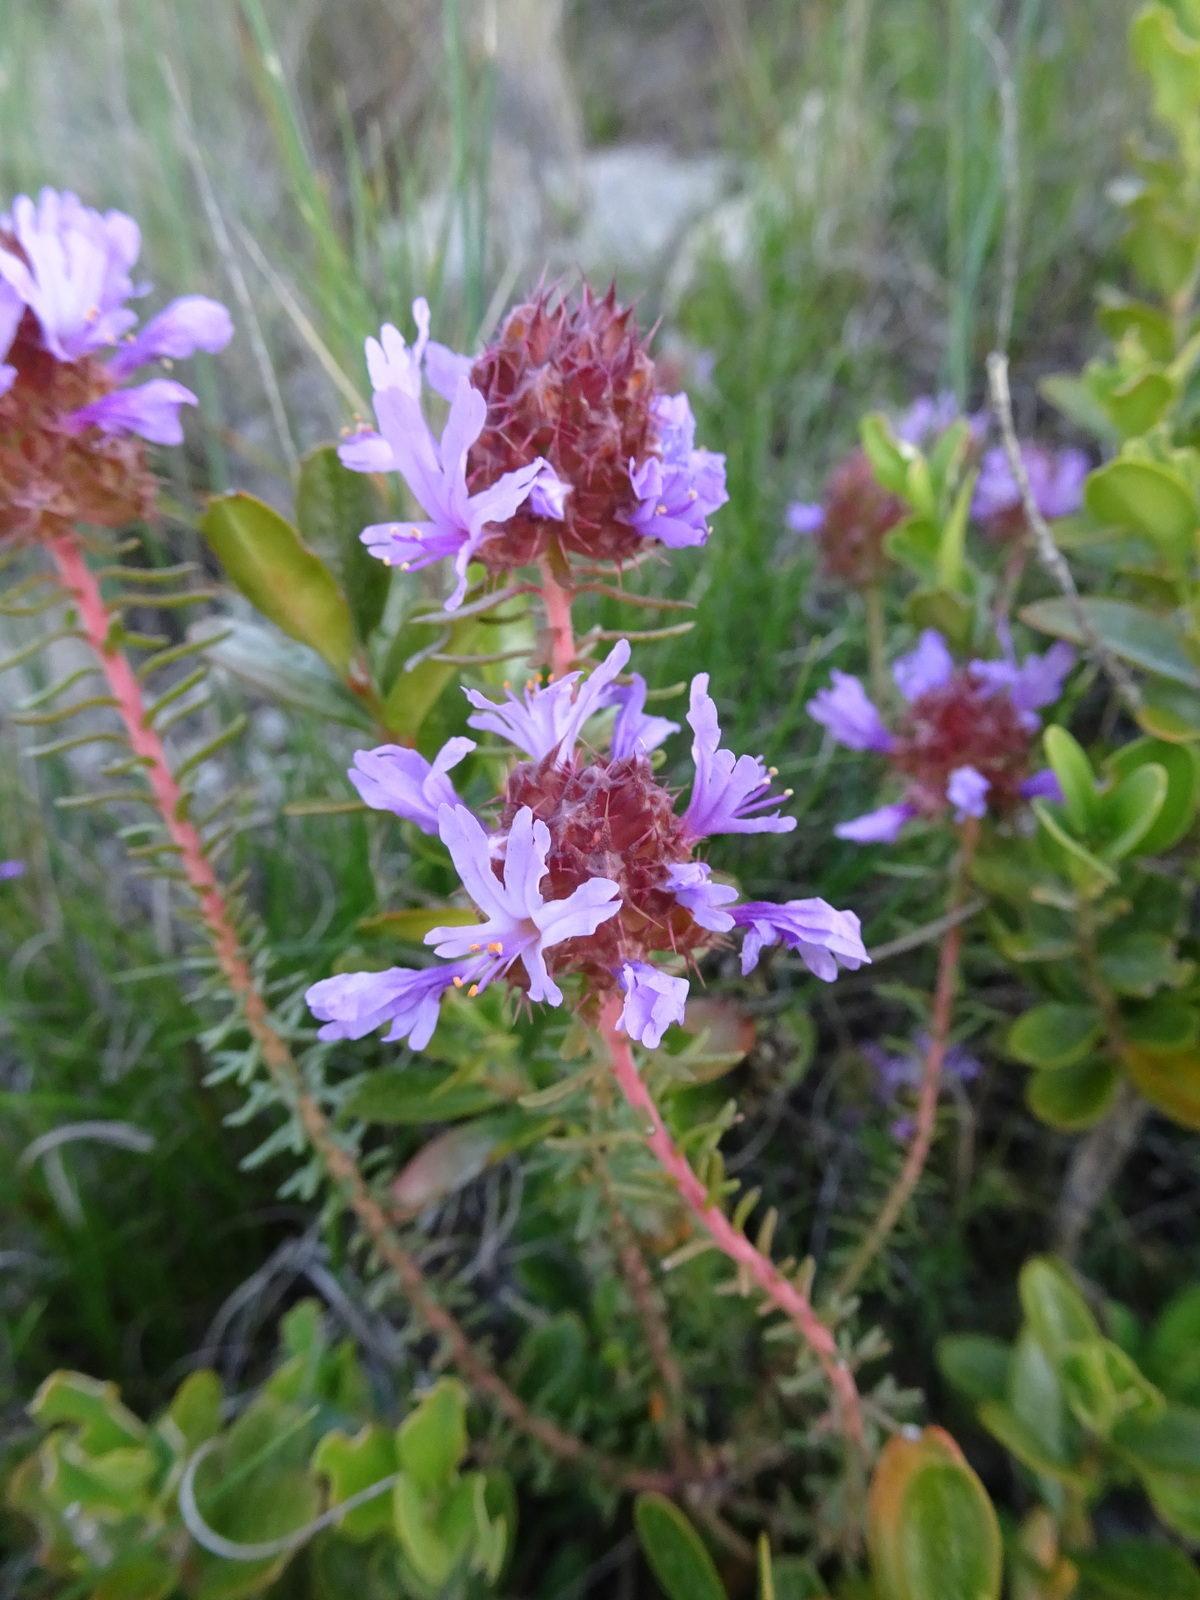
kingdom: Plantae
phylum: Tracheophyta
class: Magnoliopsida
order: Ericales
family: Primulaceae
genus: Coris
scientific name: Coris monspeliensis
